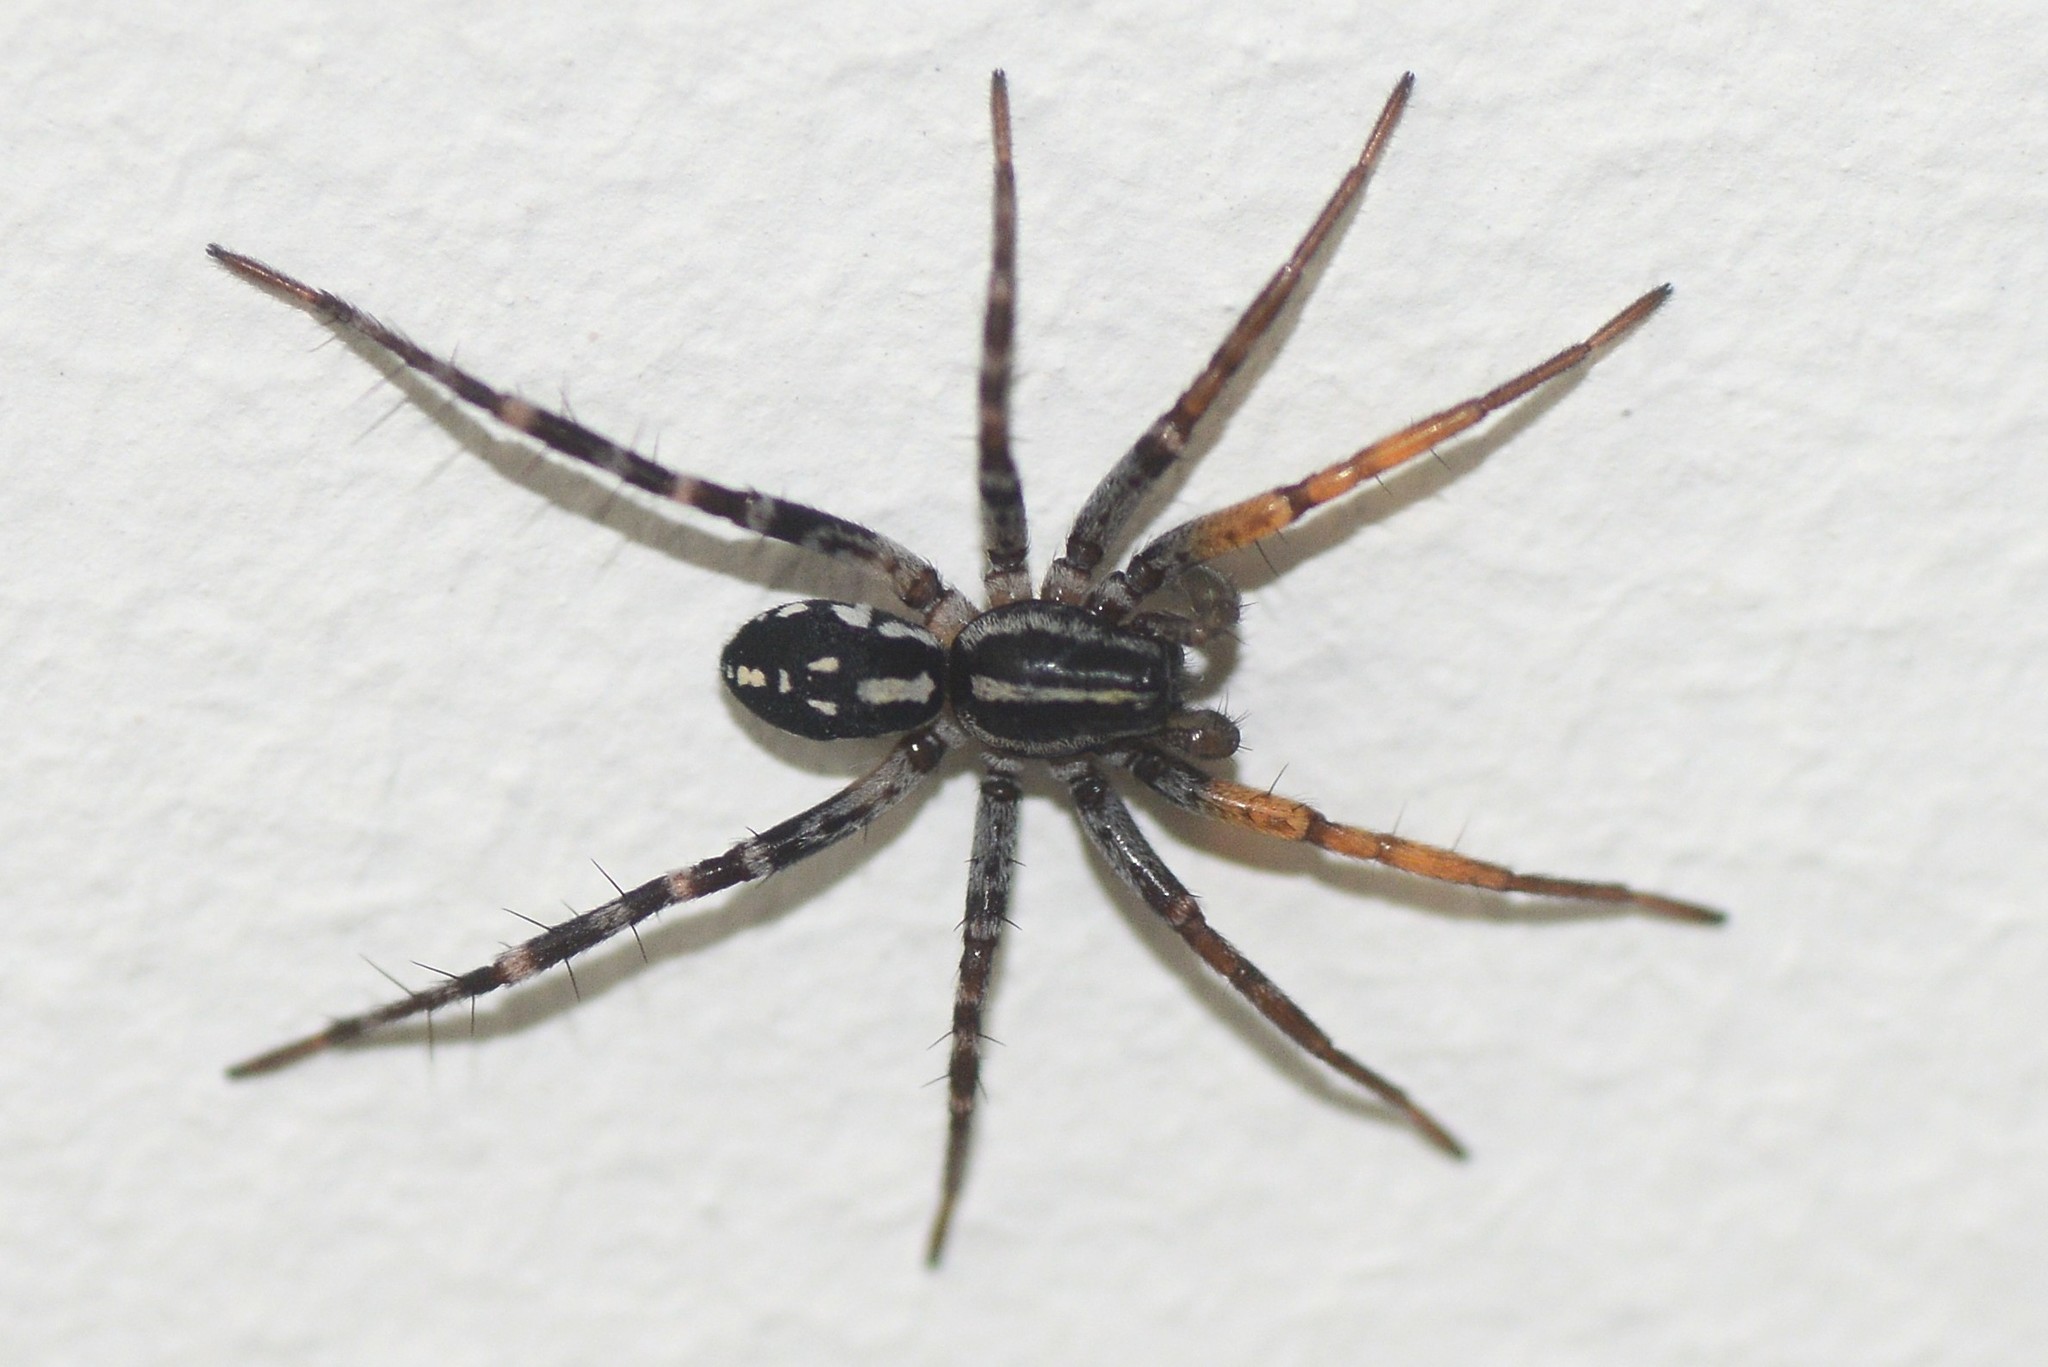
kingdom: Animalia
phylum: Arthropoda
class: Arachnida
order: Araneae
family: Corinnidae
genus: Nyssus
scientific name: Nyssus coloripes
